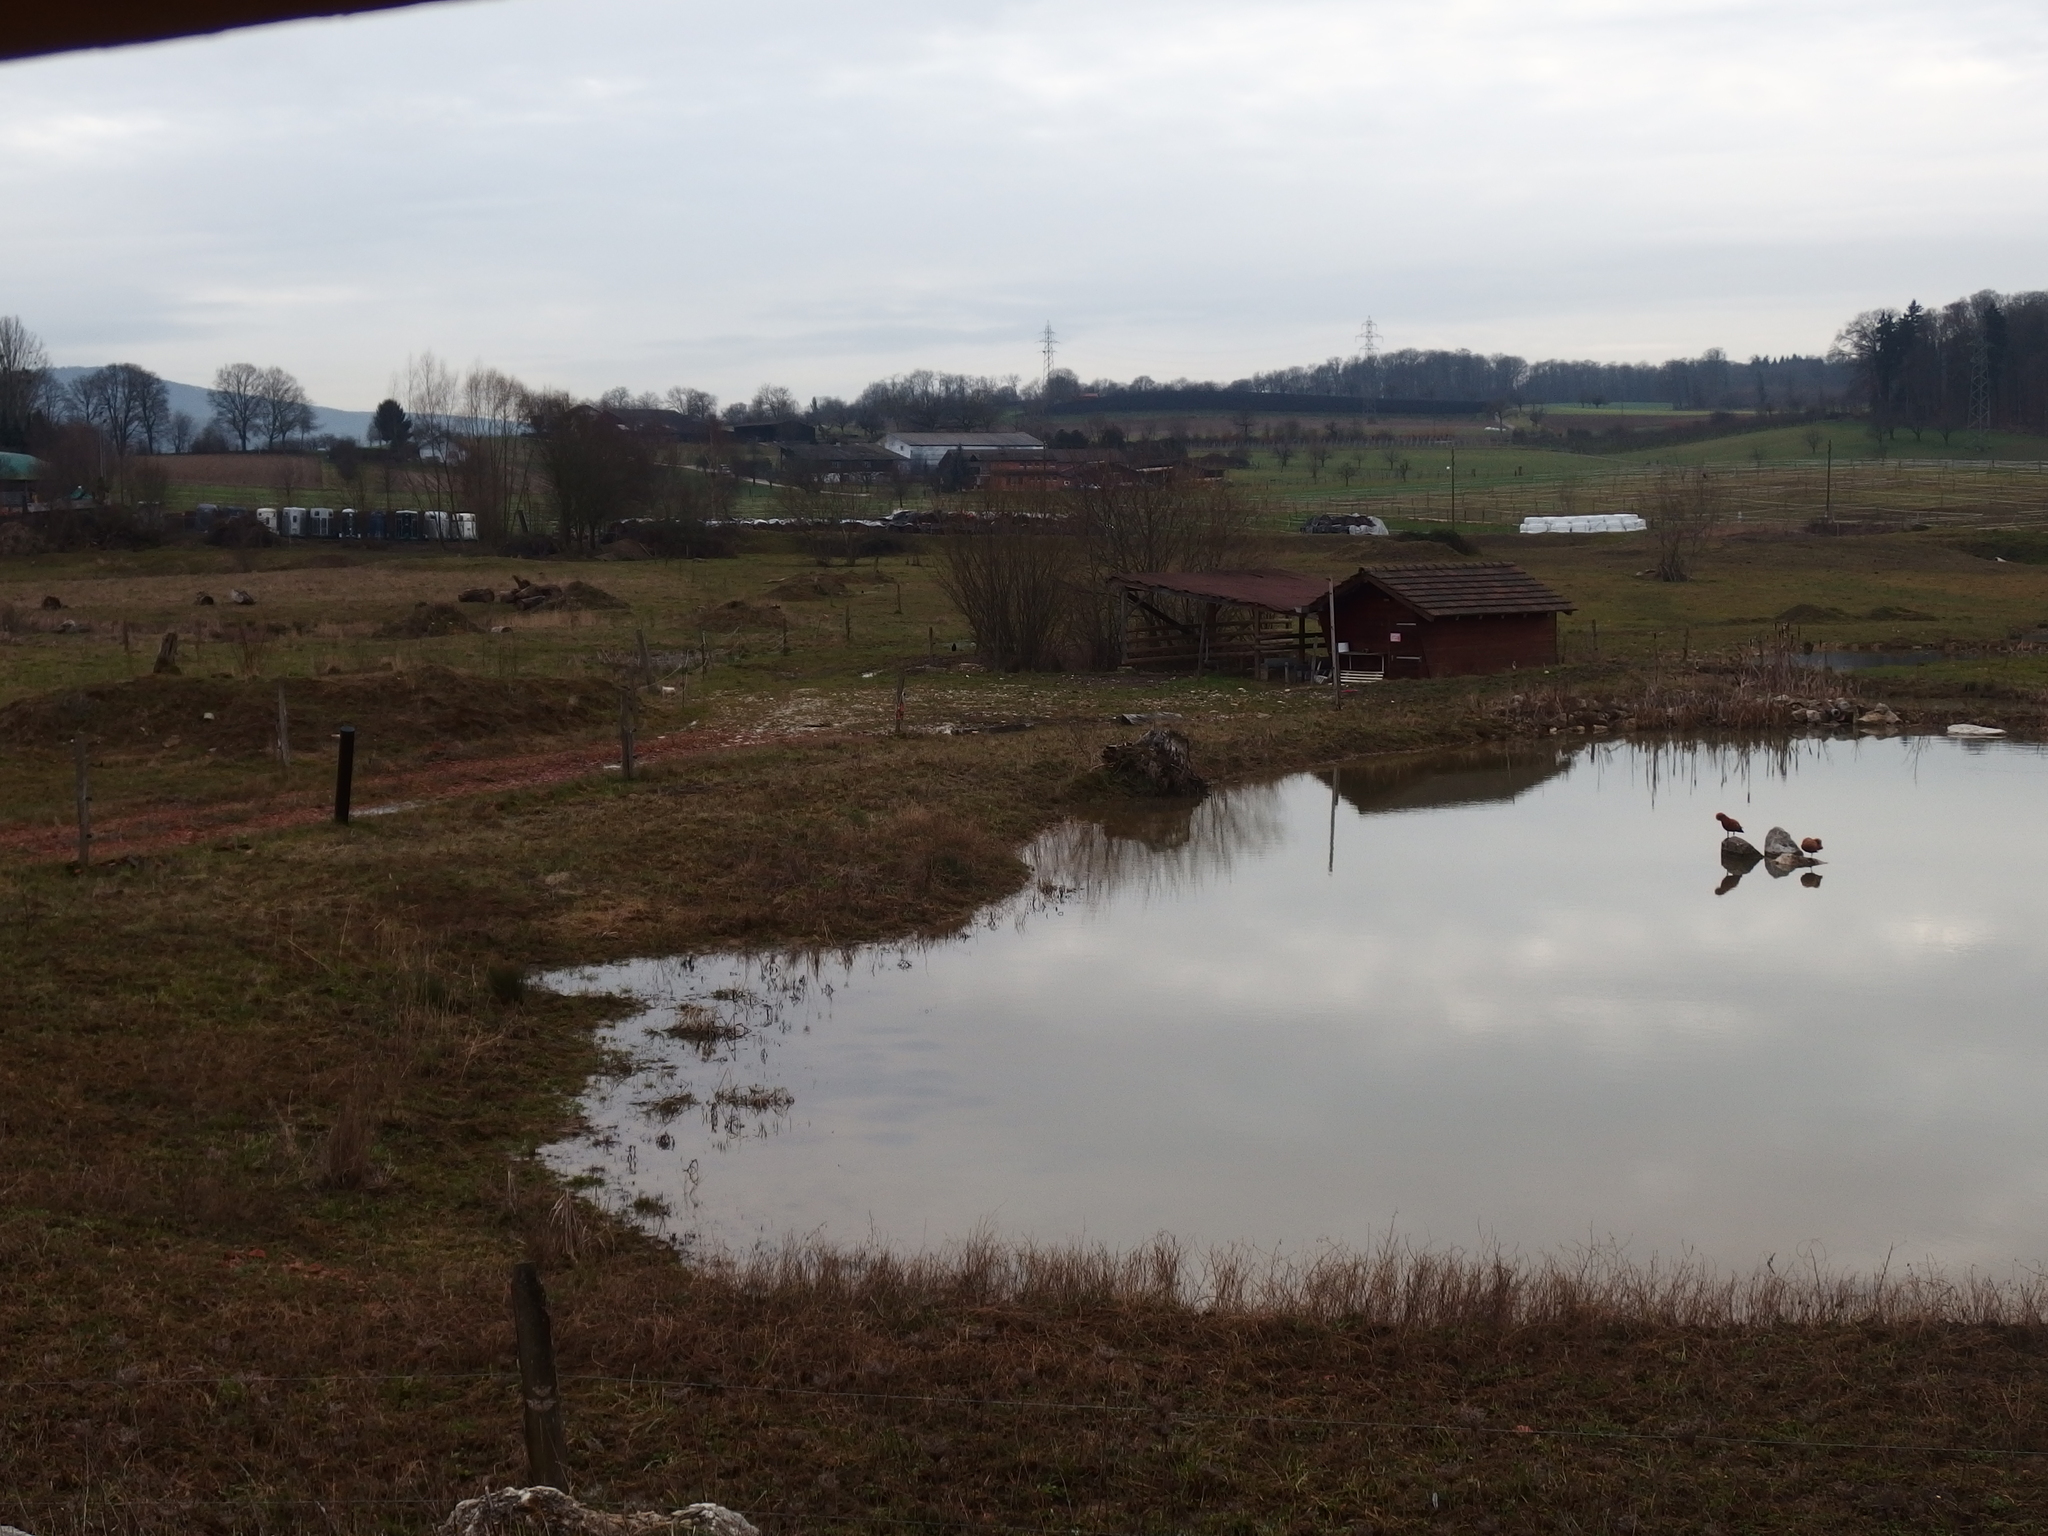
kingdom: Animalia
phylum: Chordata
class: Aves
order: Anseriformes
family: Anatidae
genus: Tadorna
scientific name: Tadorna ferruginea
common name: Ruddy shelduck
